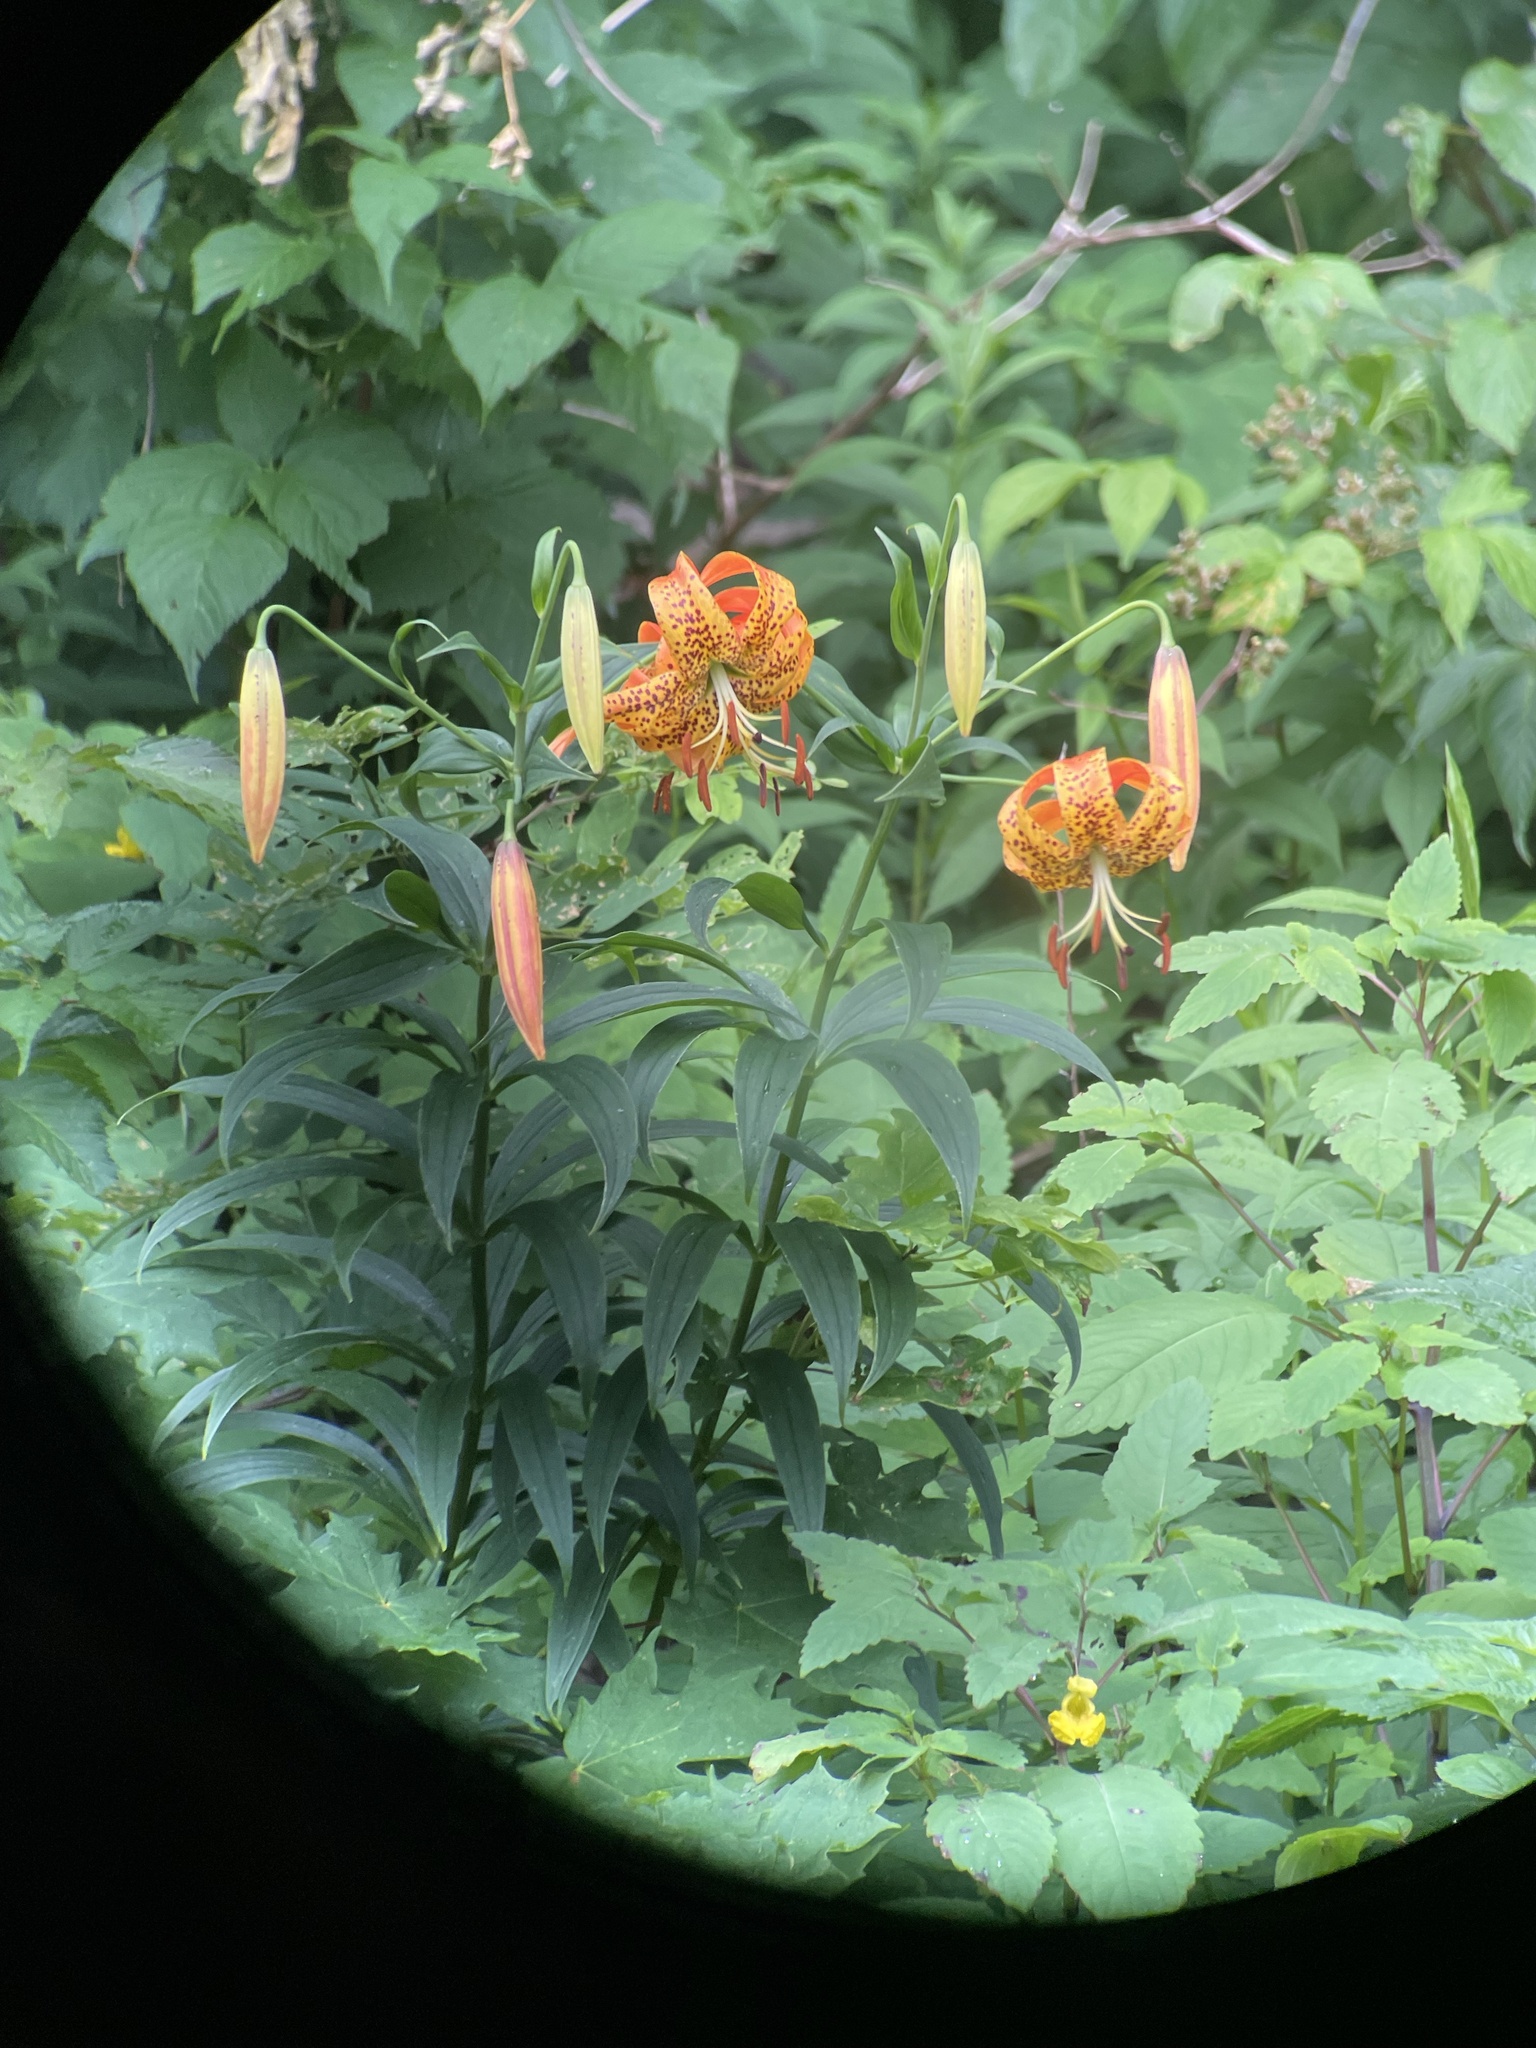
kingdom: Plantae
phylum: Tracheophyta
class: Liliopsida
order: Liliales
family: Liliaceae
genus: Lilium
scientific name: Lilium superbum
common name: American turk's-cap lily
